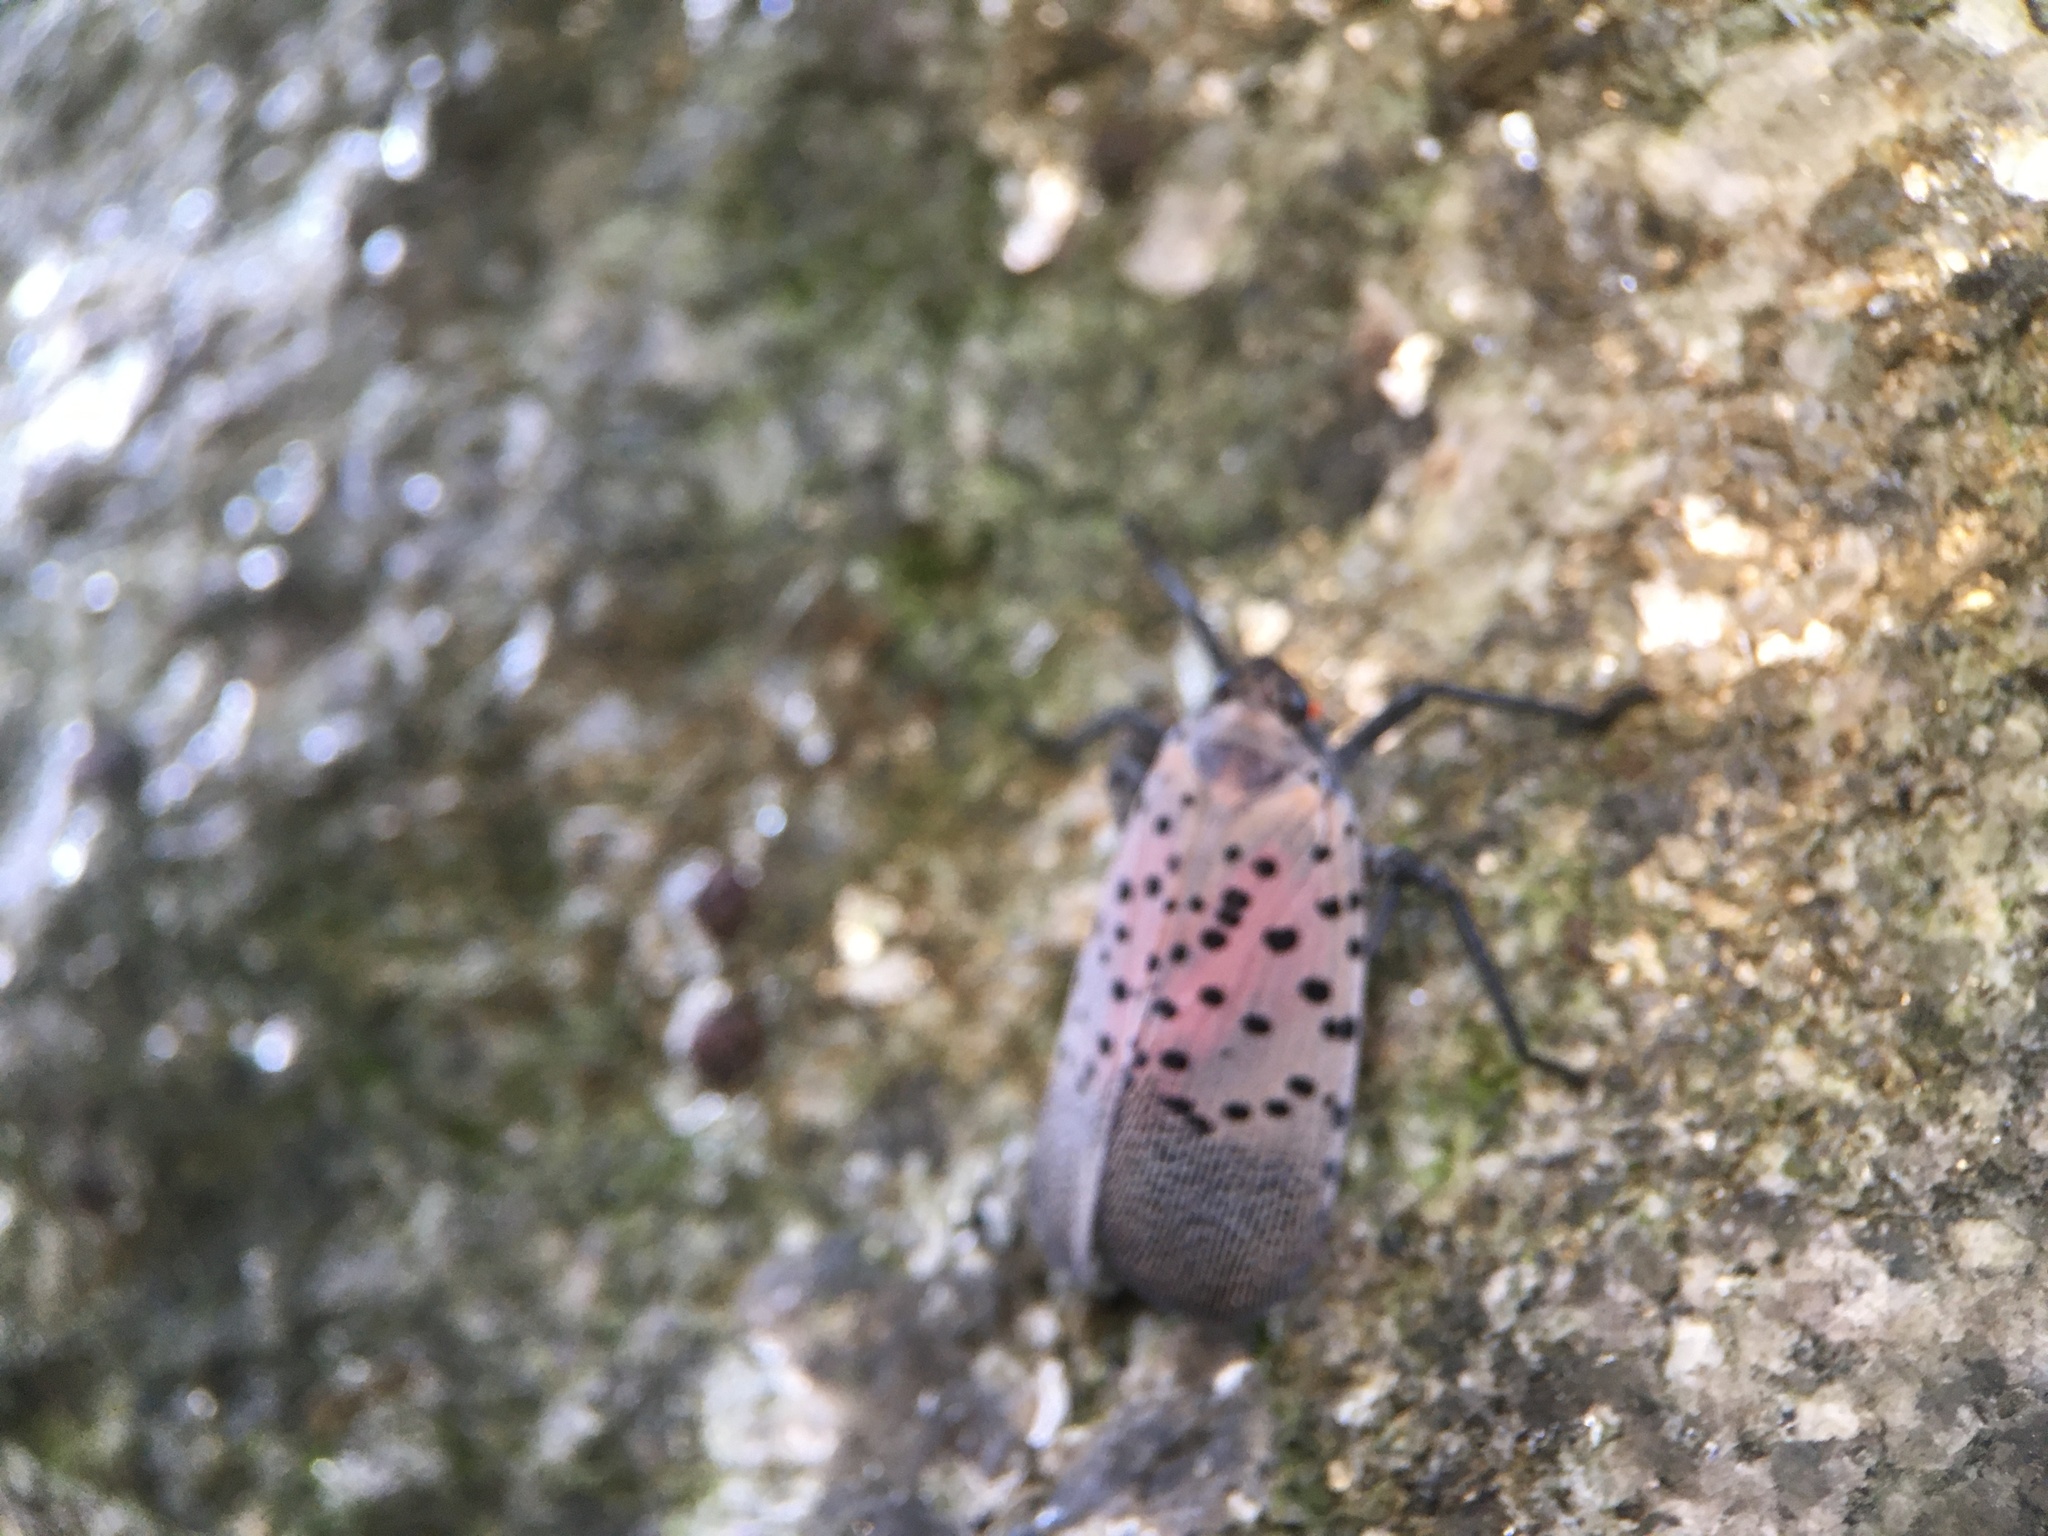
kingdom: Animalia
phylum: Arthropoda
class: Insecta
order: Hemiptera
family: Fulgoridae
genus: Lycorma
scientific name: Lycorma delicatula
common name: Spotted lanternfly
